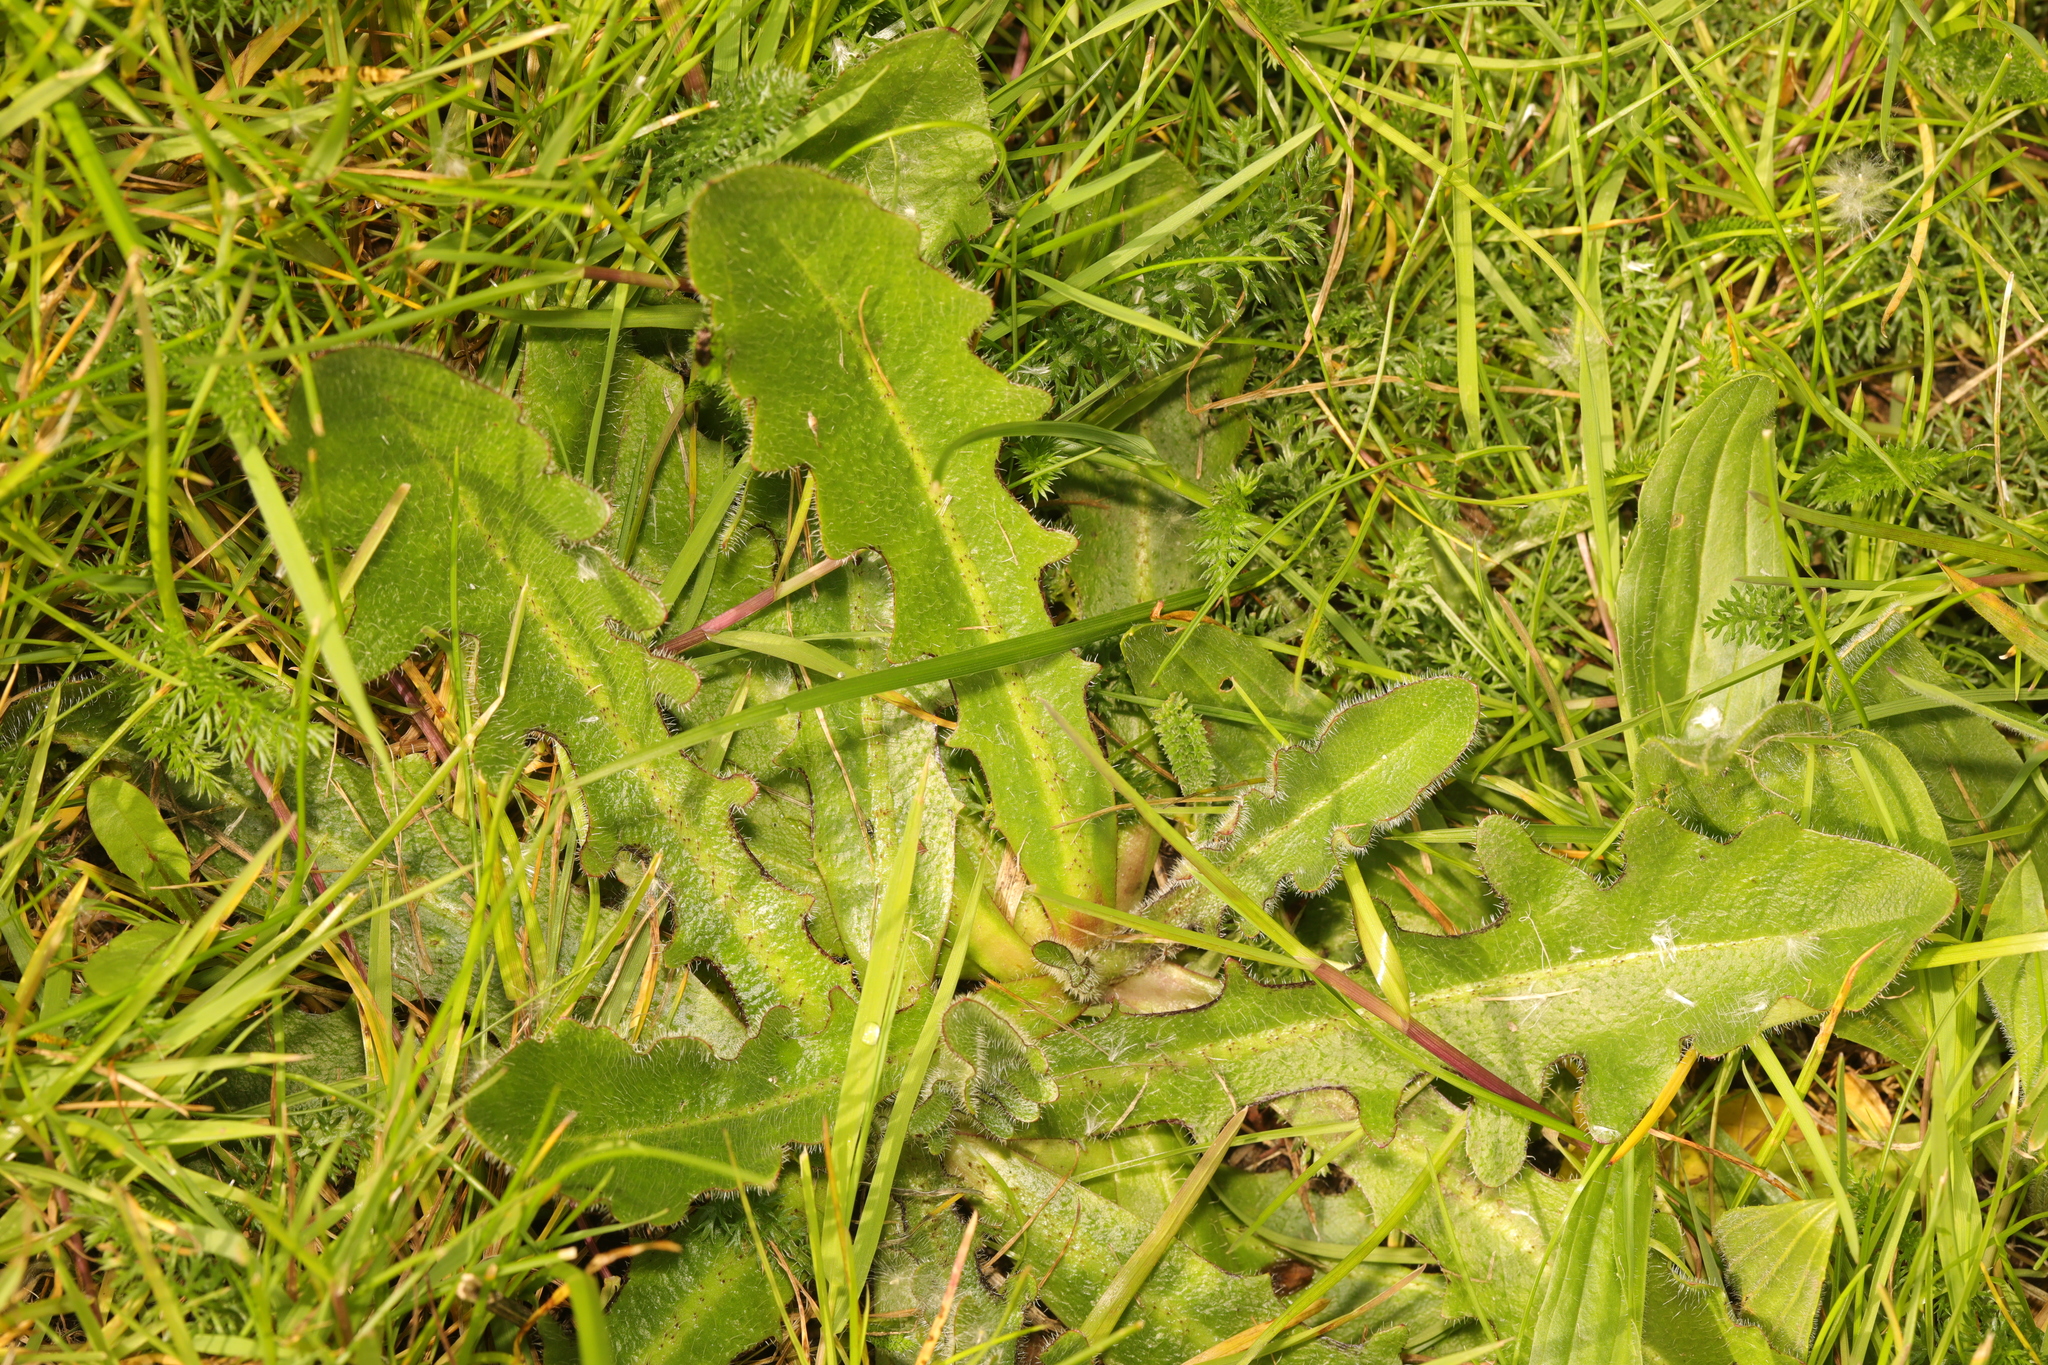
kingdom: Plantae
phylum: Tracheophyta
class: Magnoliopsida
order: Asterales
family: Asteraceae
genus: Hypochaeris
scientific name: Hypochaeris radicata
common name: Flatweed
